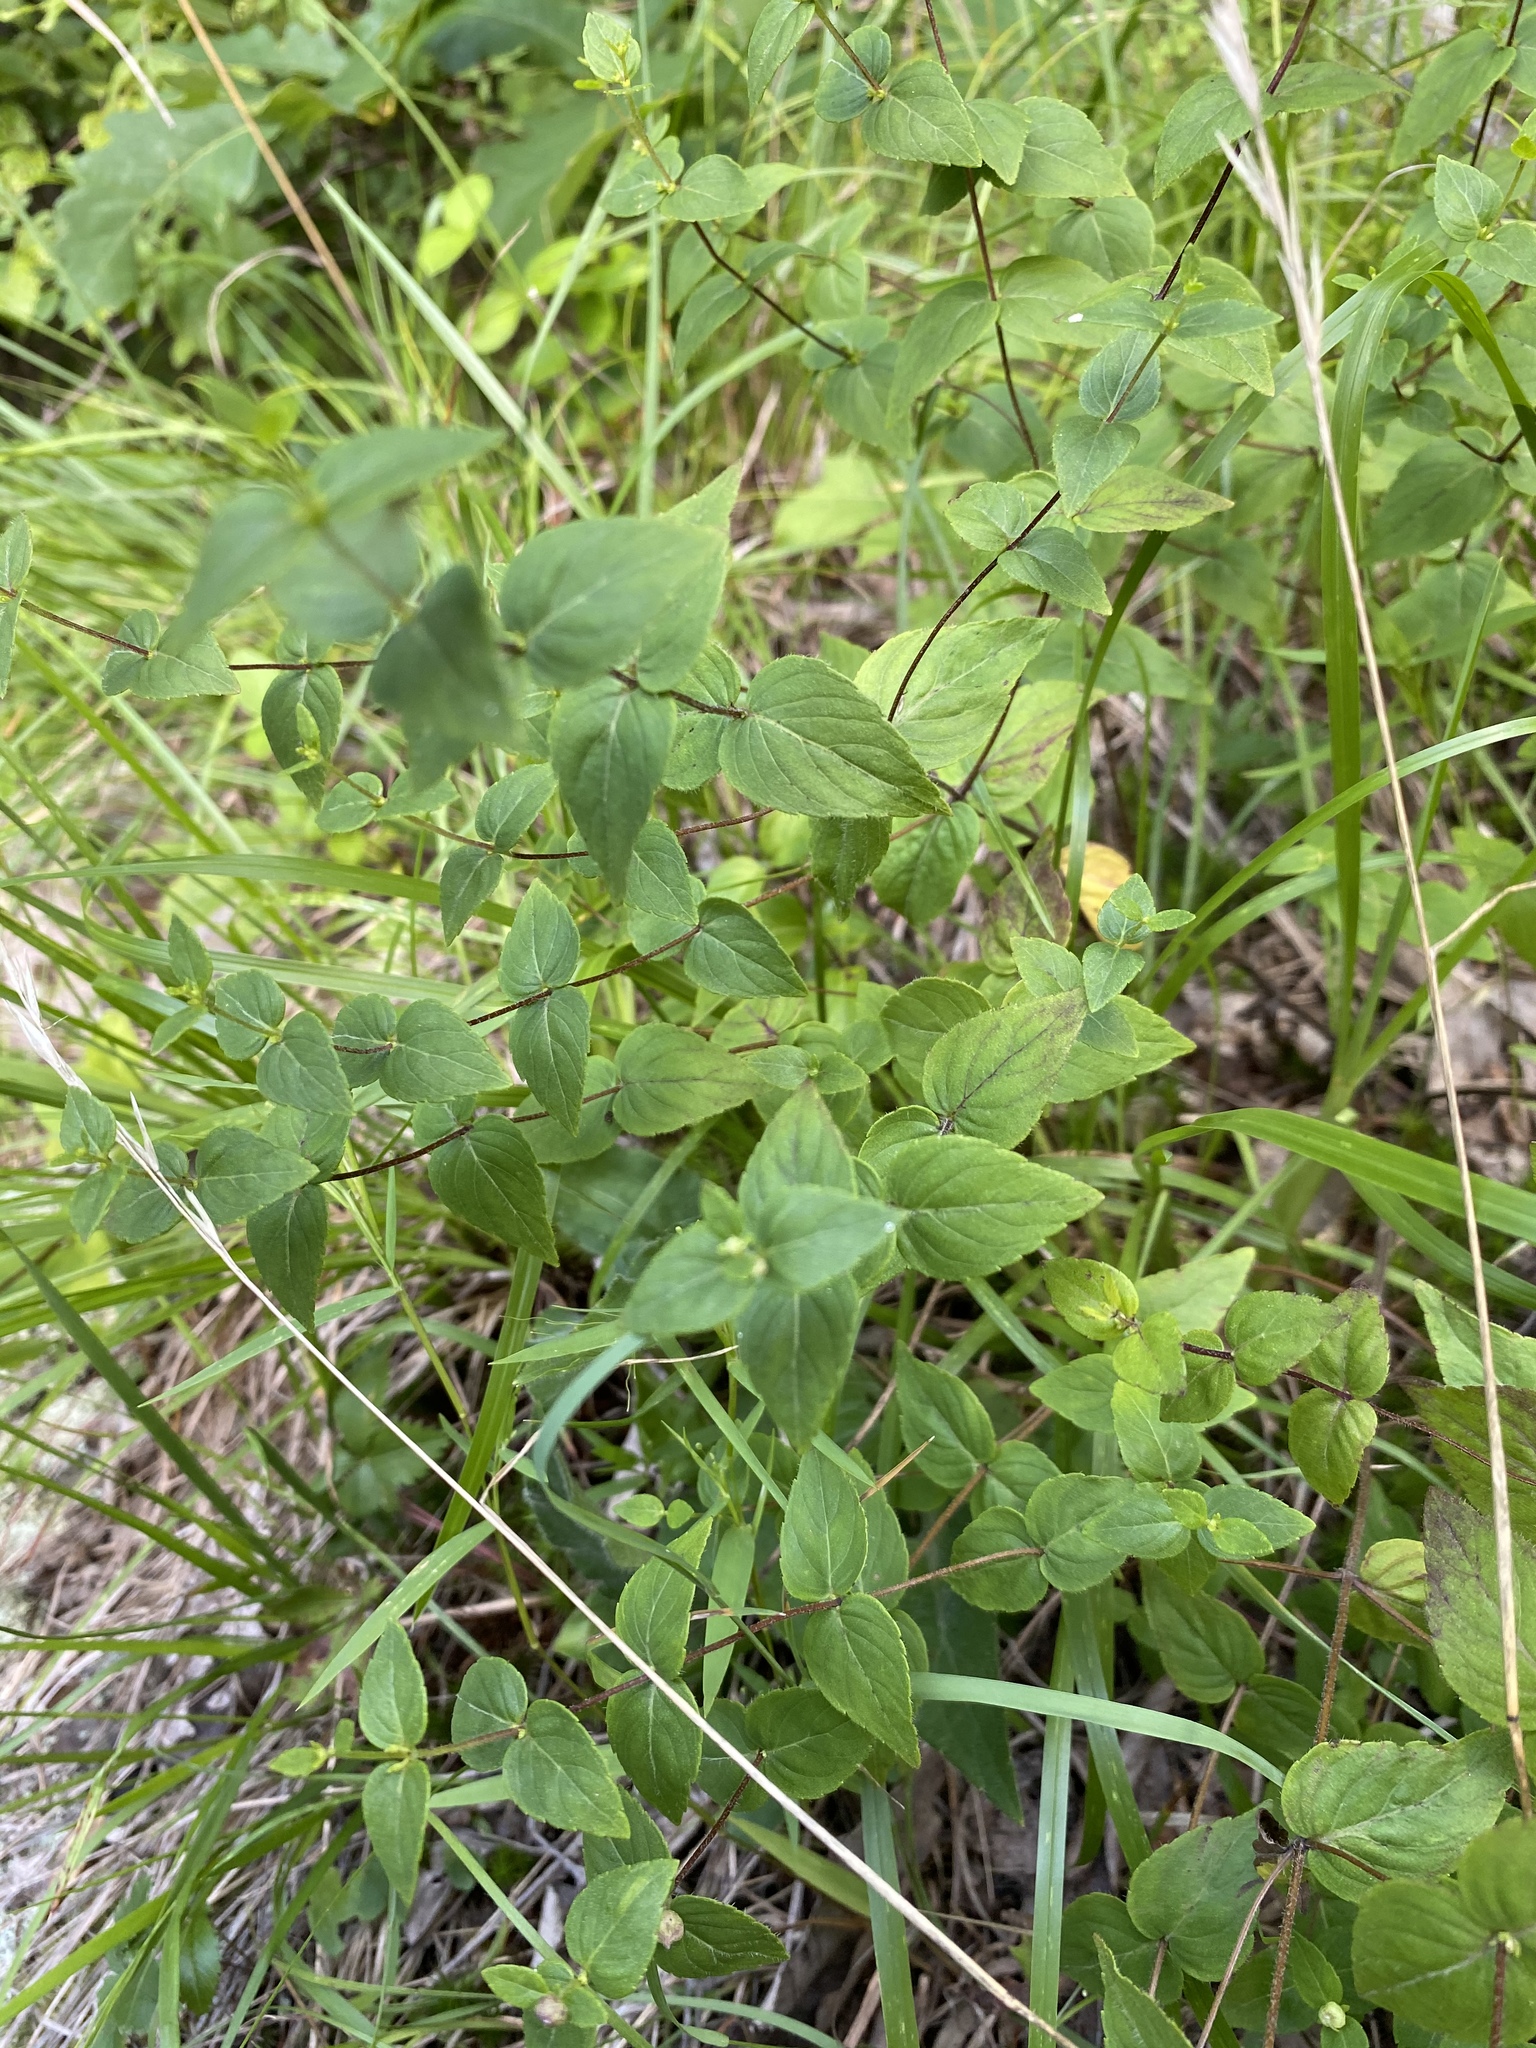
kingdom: Plantae
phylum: Tracheophyta
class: Magnoliopsida
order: Lamiales
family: Lamiaceae
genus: Cunila
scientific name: Cunila origanoides
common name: American dittany
